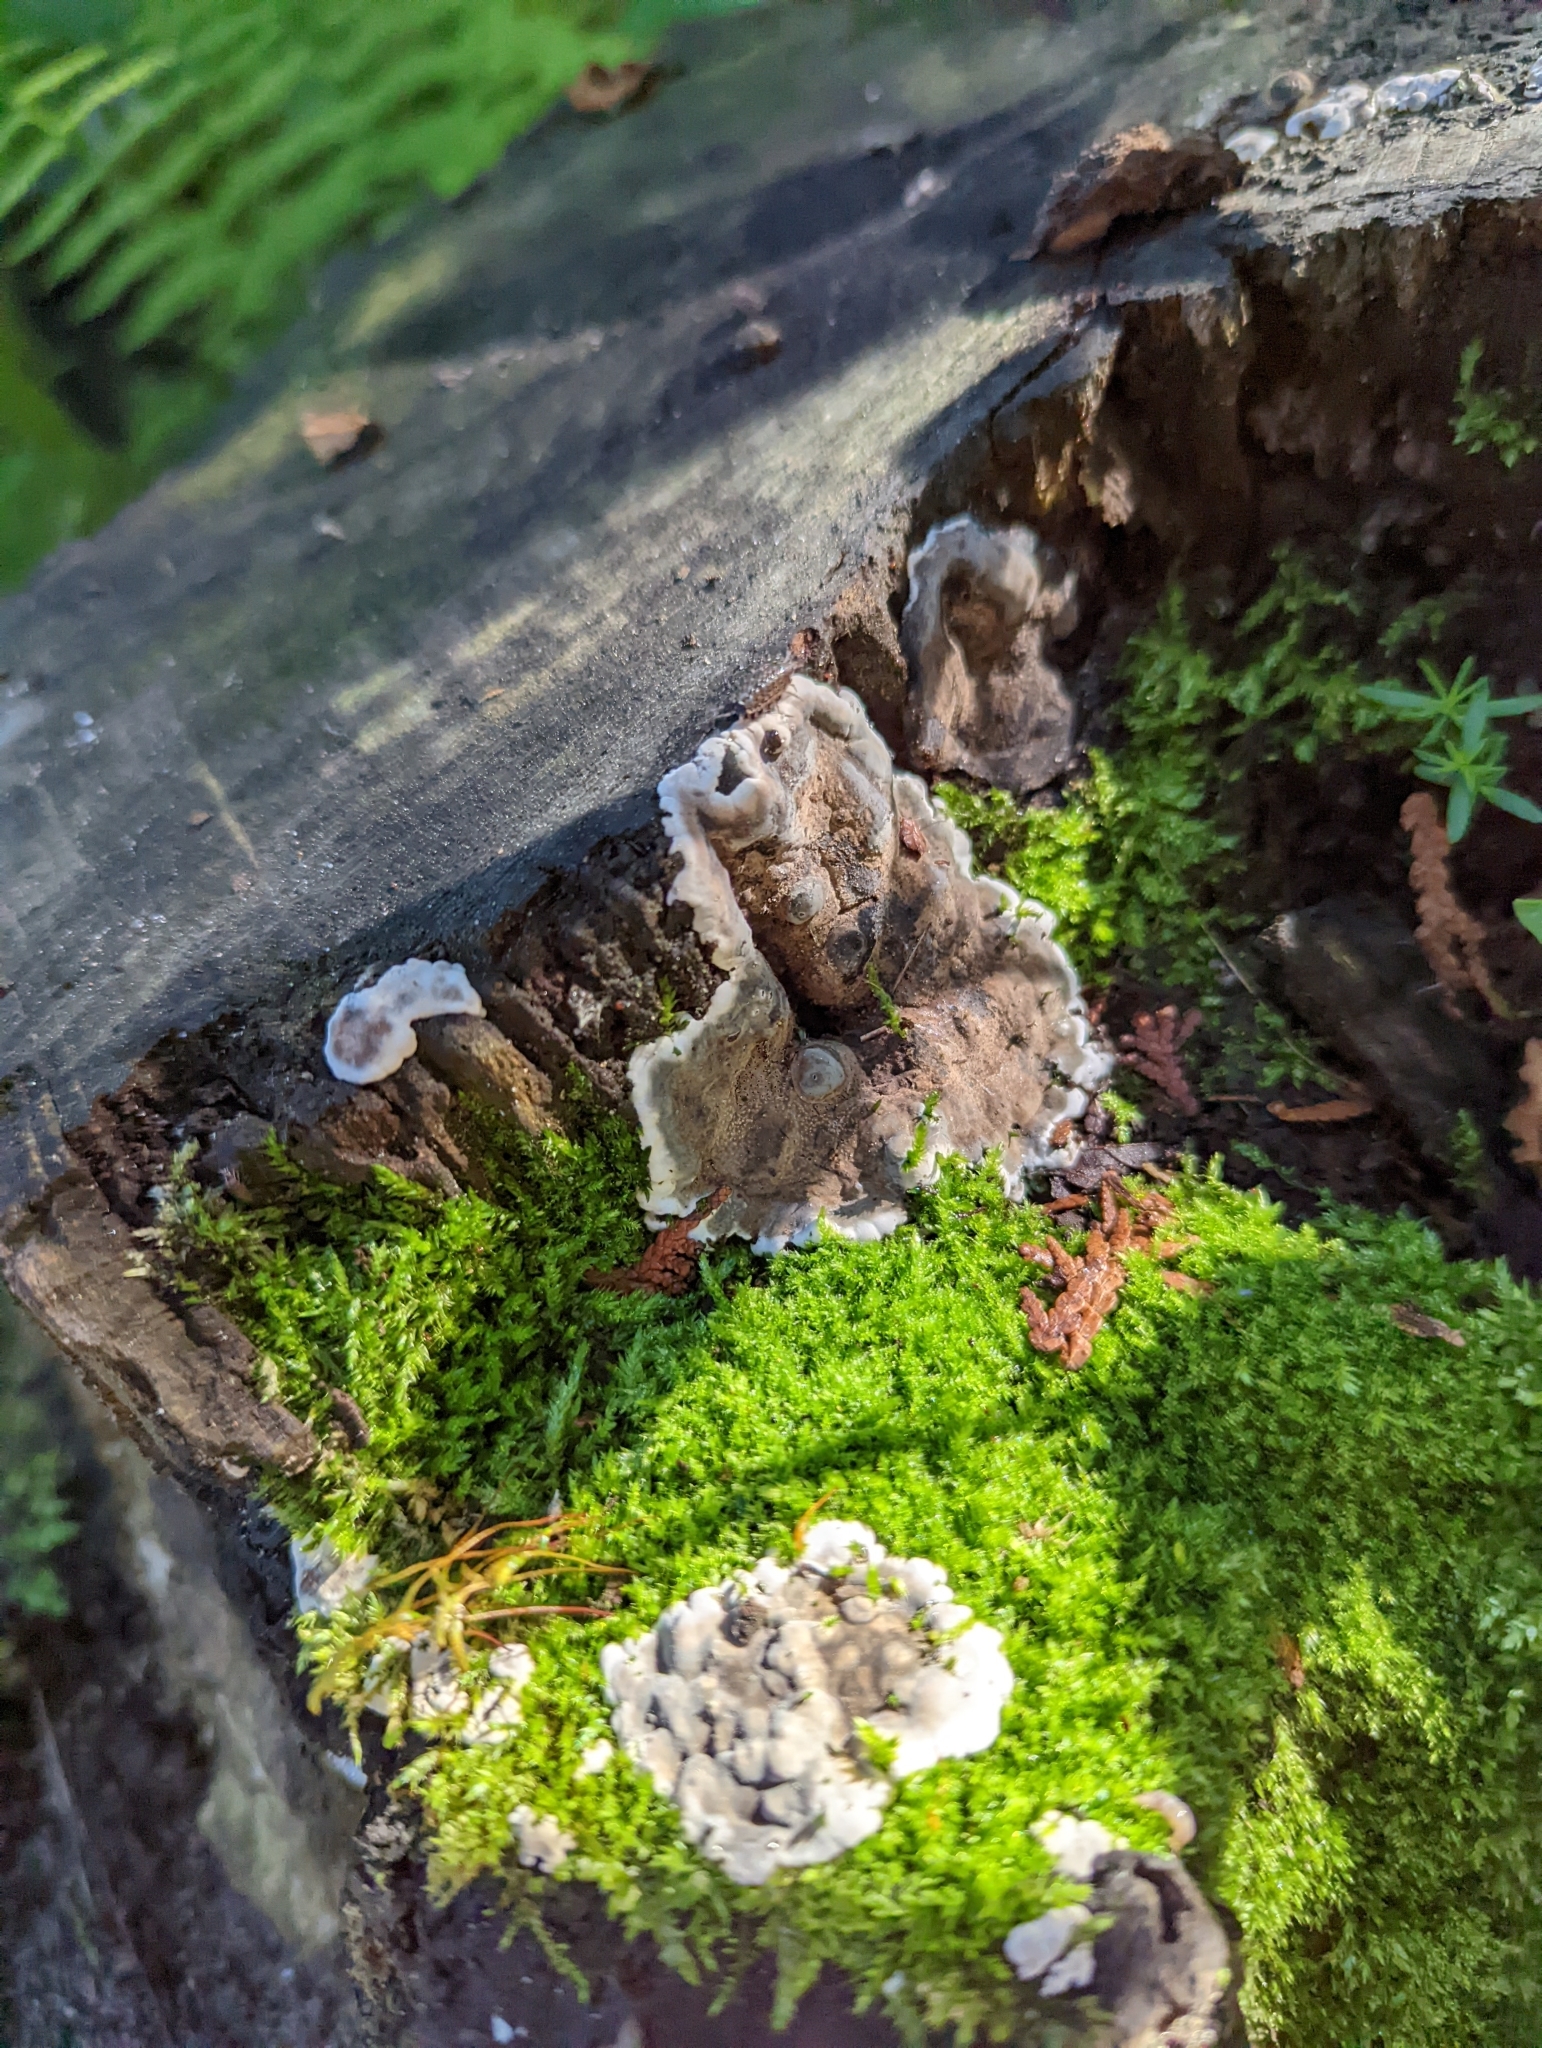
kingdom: Fungi
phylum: Ascomycota
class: Sordariomycetes
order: Xylariales
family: Xylariaceae
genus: Kretzschmaria
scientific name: Kretzschmaria deusta
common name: Brittle cinder
